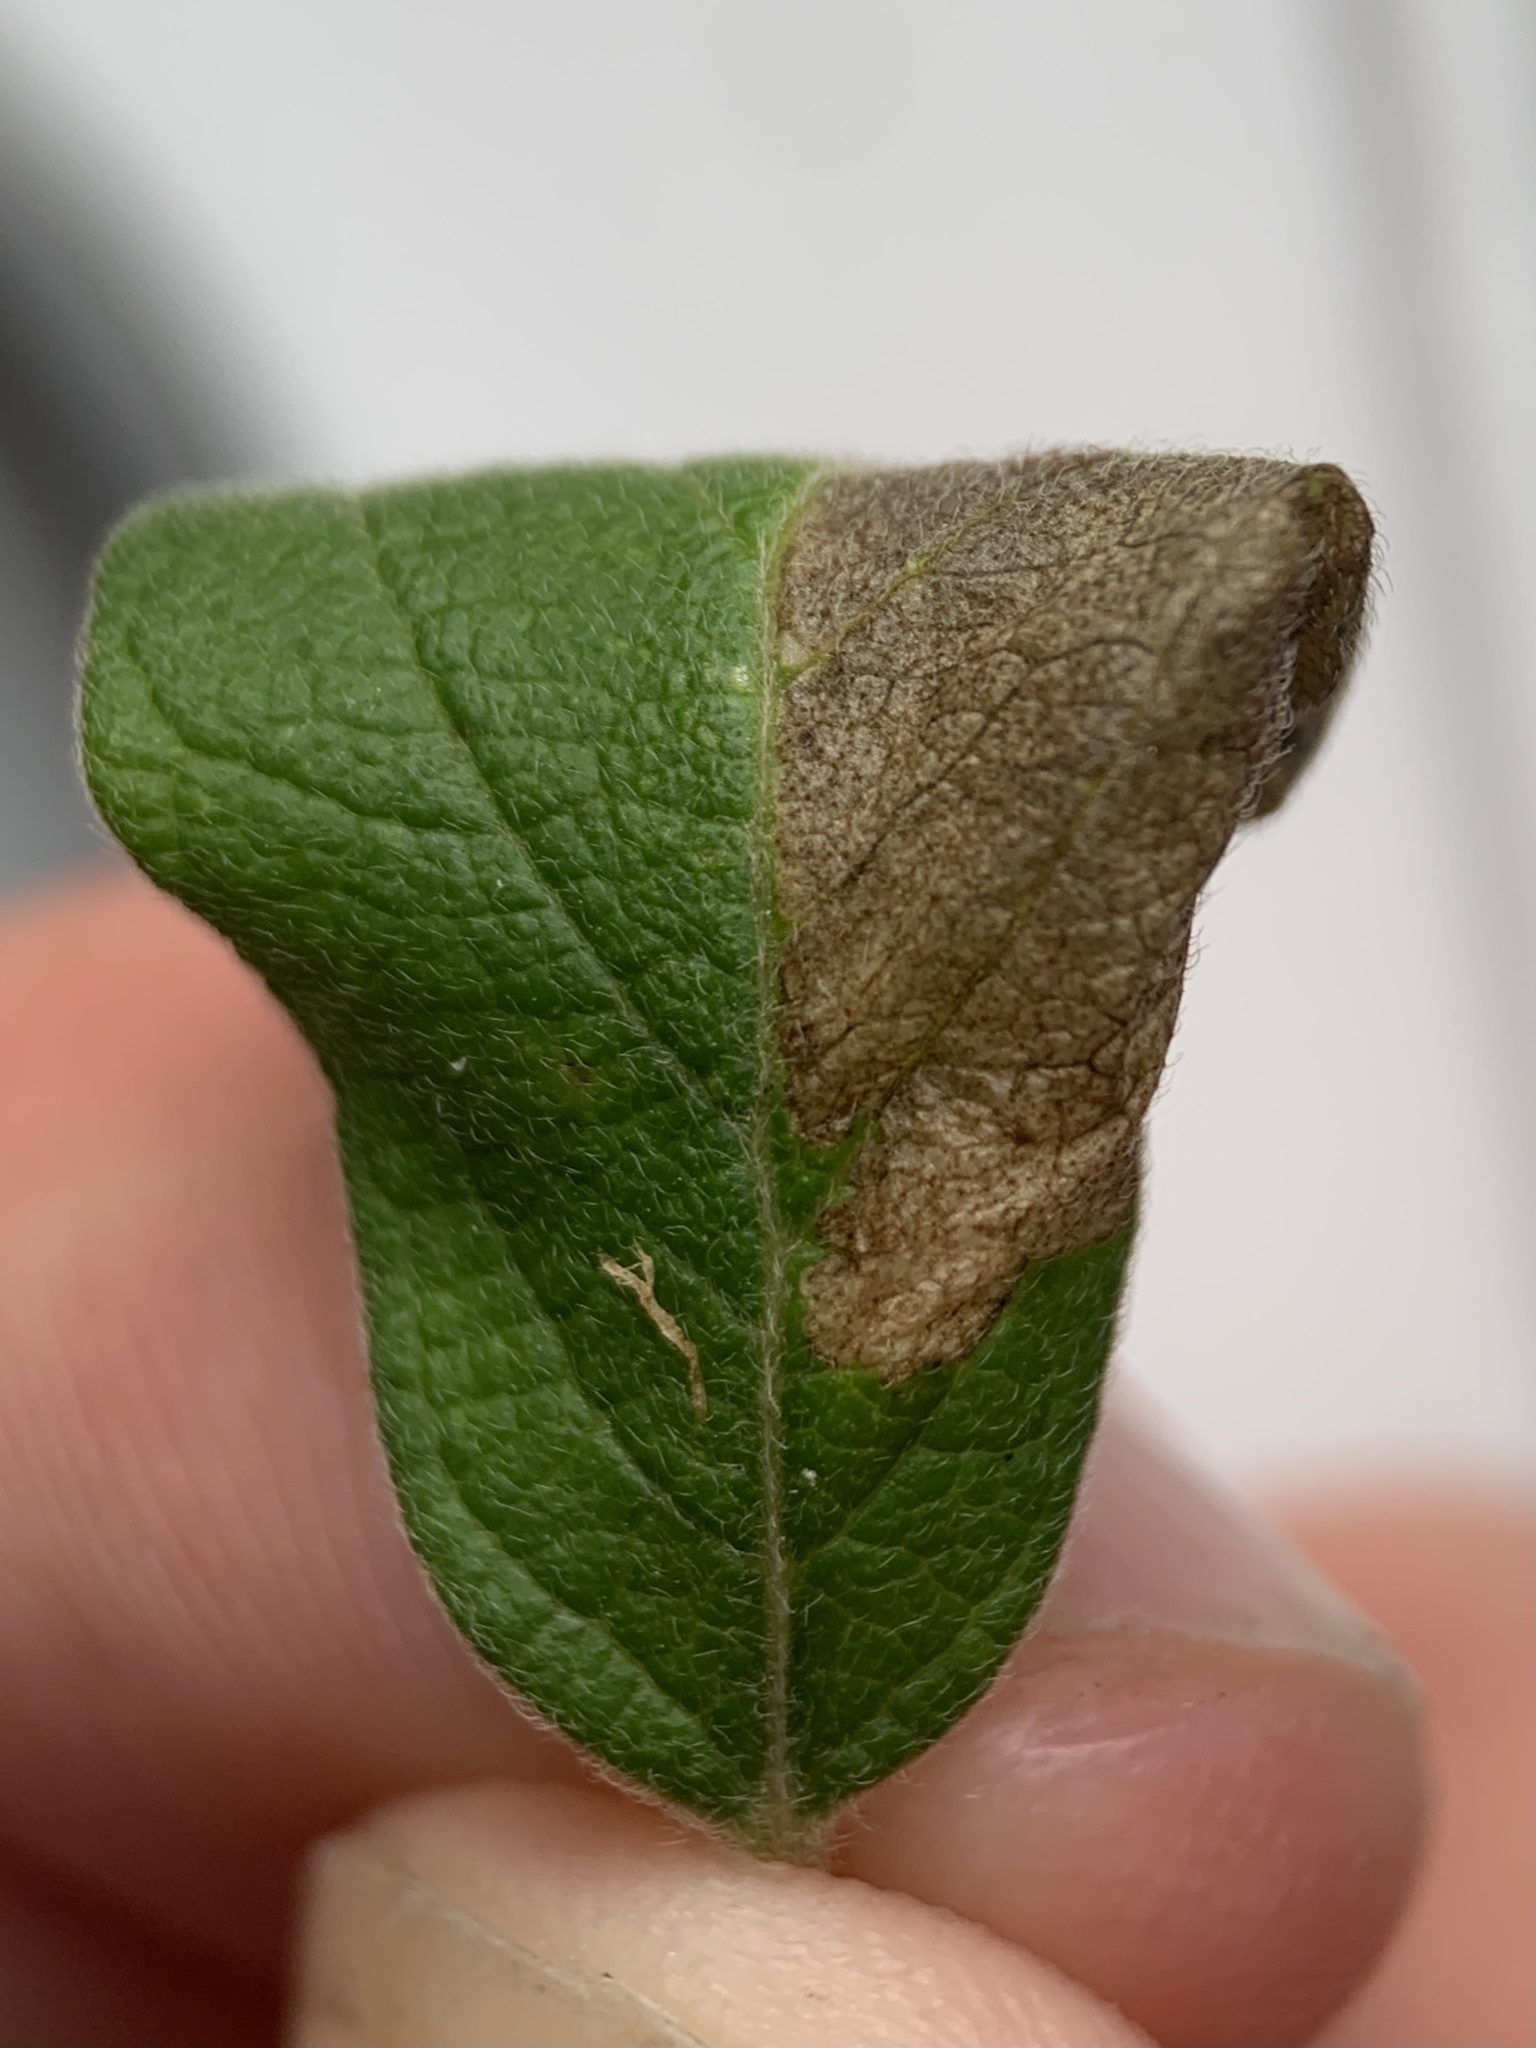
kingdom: Animalia
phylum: Arthropoda
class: Insecta
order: Lepidoptera
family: Gracillariidae
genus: Phyllonorycter
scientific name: Phyllonorycter emberizaepenella
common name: Large midget
